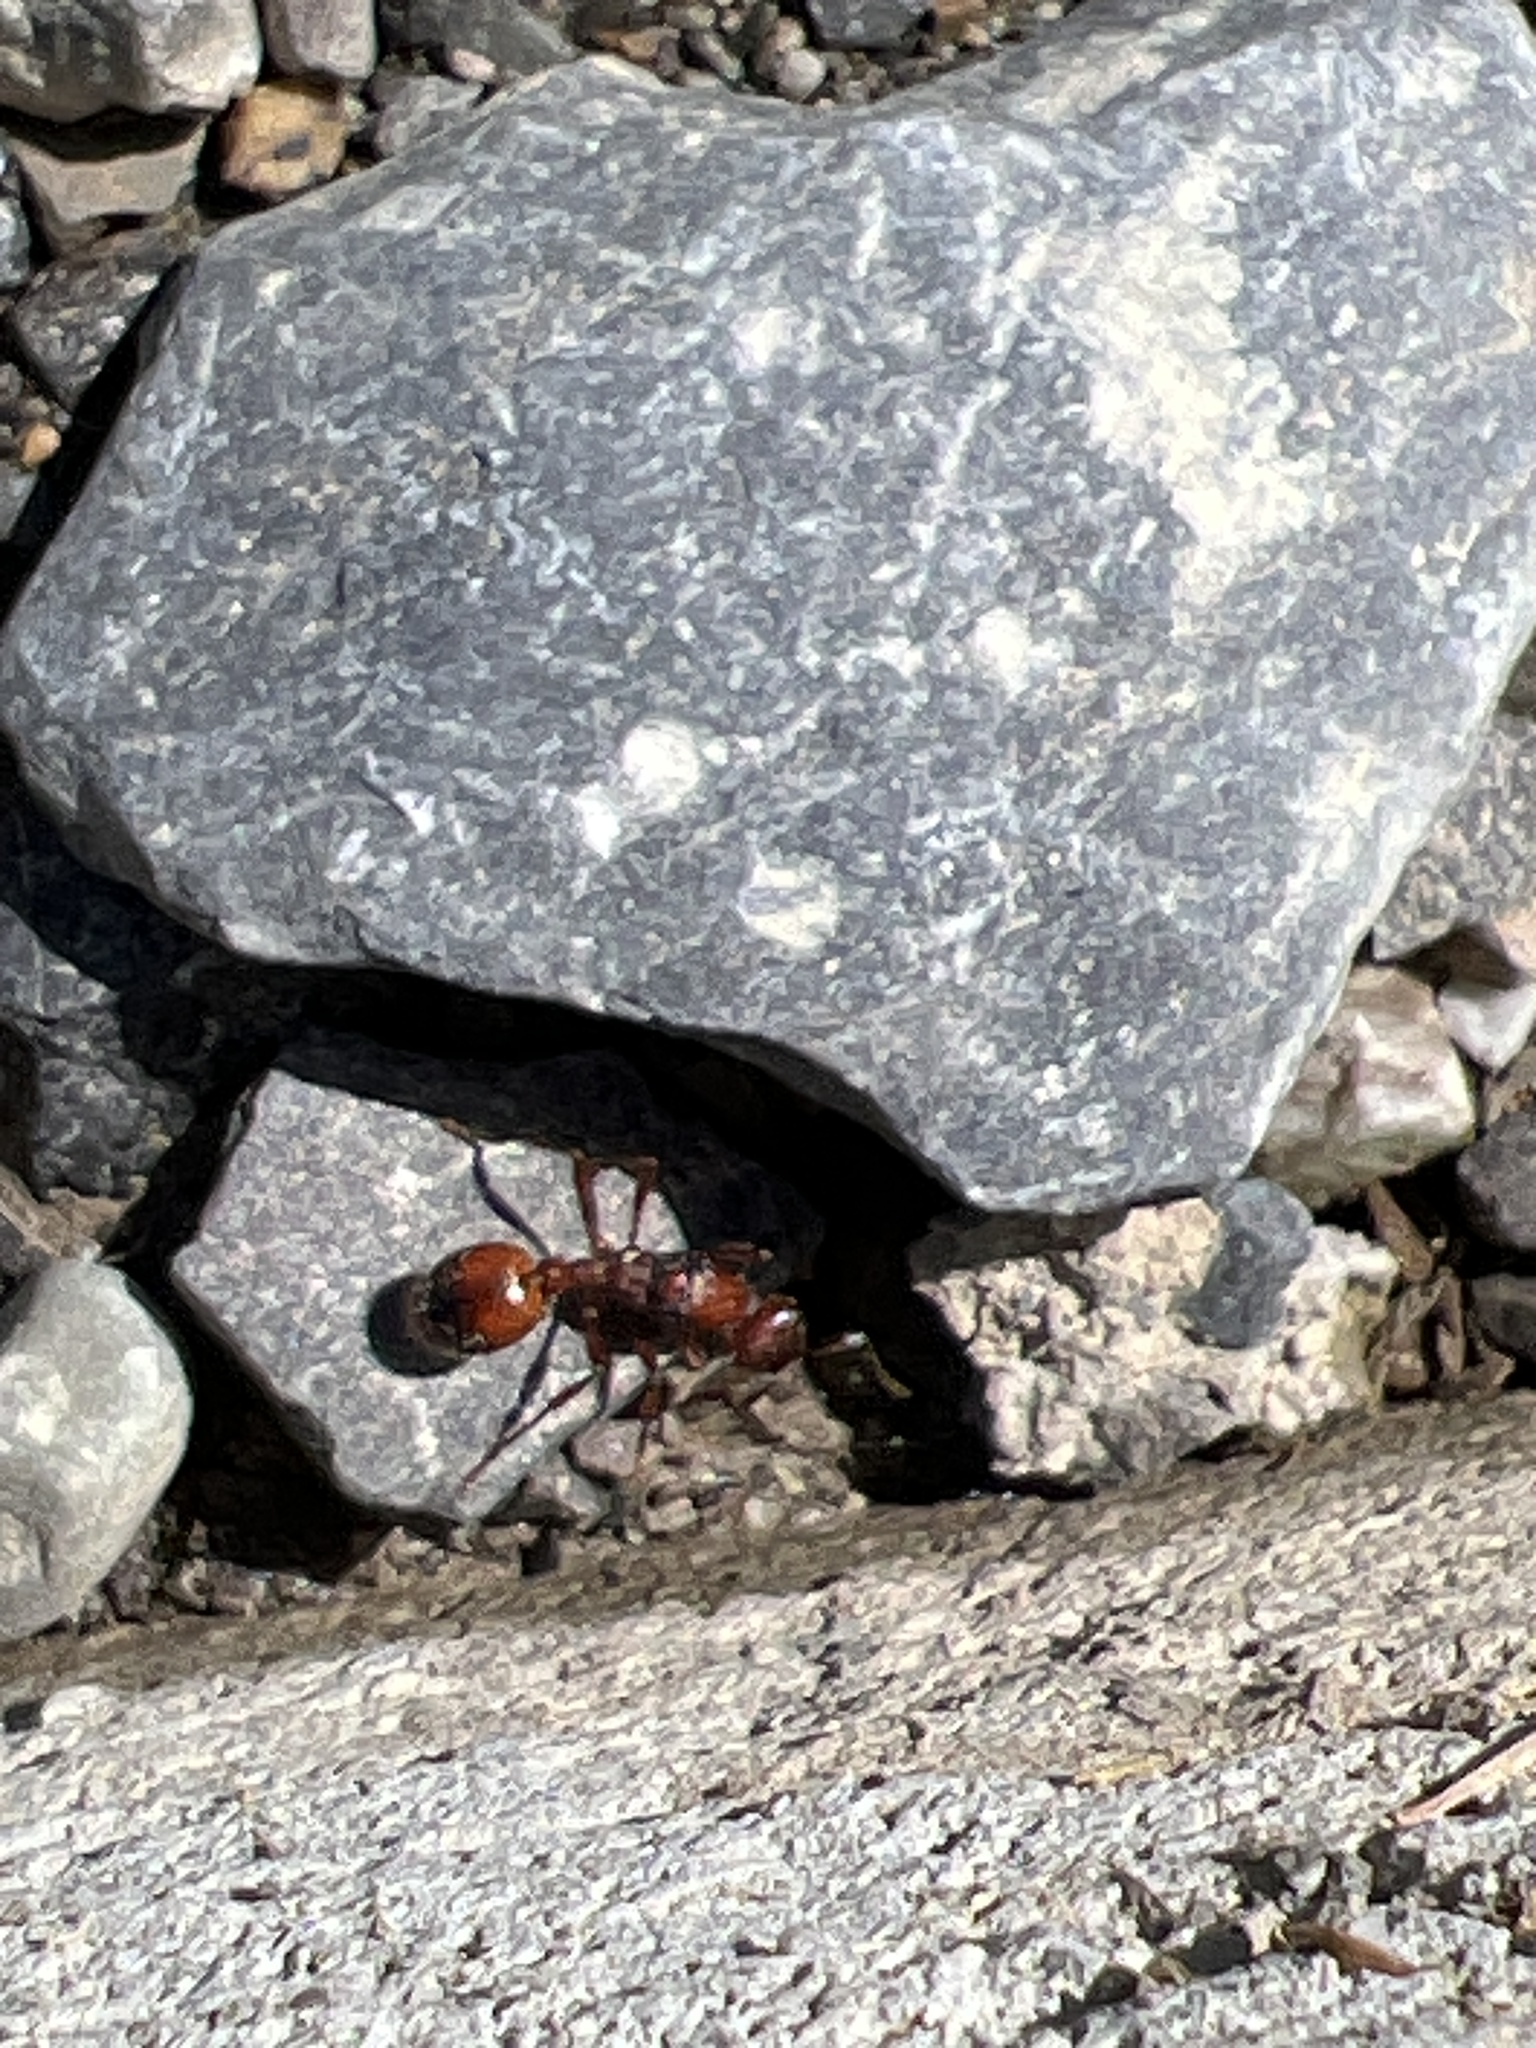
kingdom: Animalia
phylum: Arthropoda
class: Insecta
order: Hymenoptera
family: Formicidae
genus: Manica
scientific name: Manica rubida
